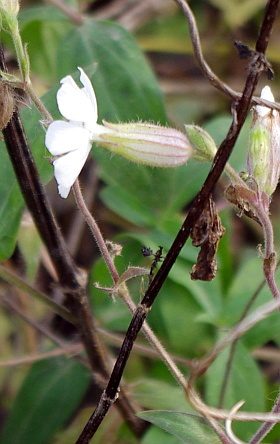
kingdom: Plantae
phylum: Tracheophyta
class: Magnoliopsida
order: Caryophyllales
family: Caryophyllaceae
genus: Silene
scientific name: Silene latifolia
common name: White campion
